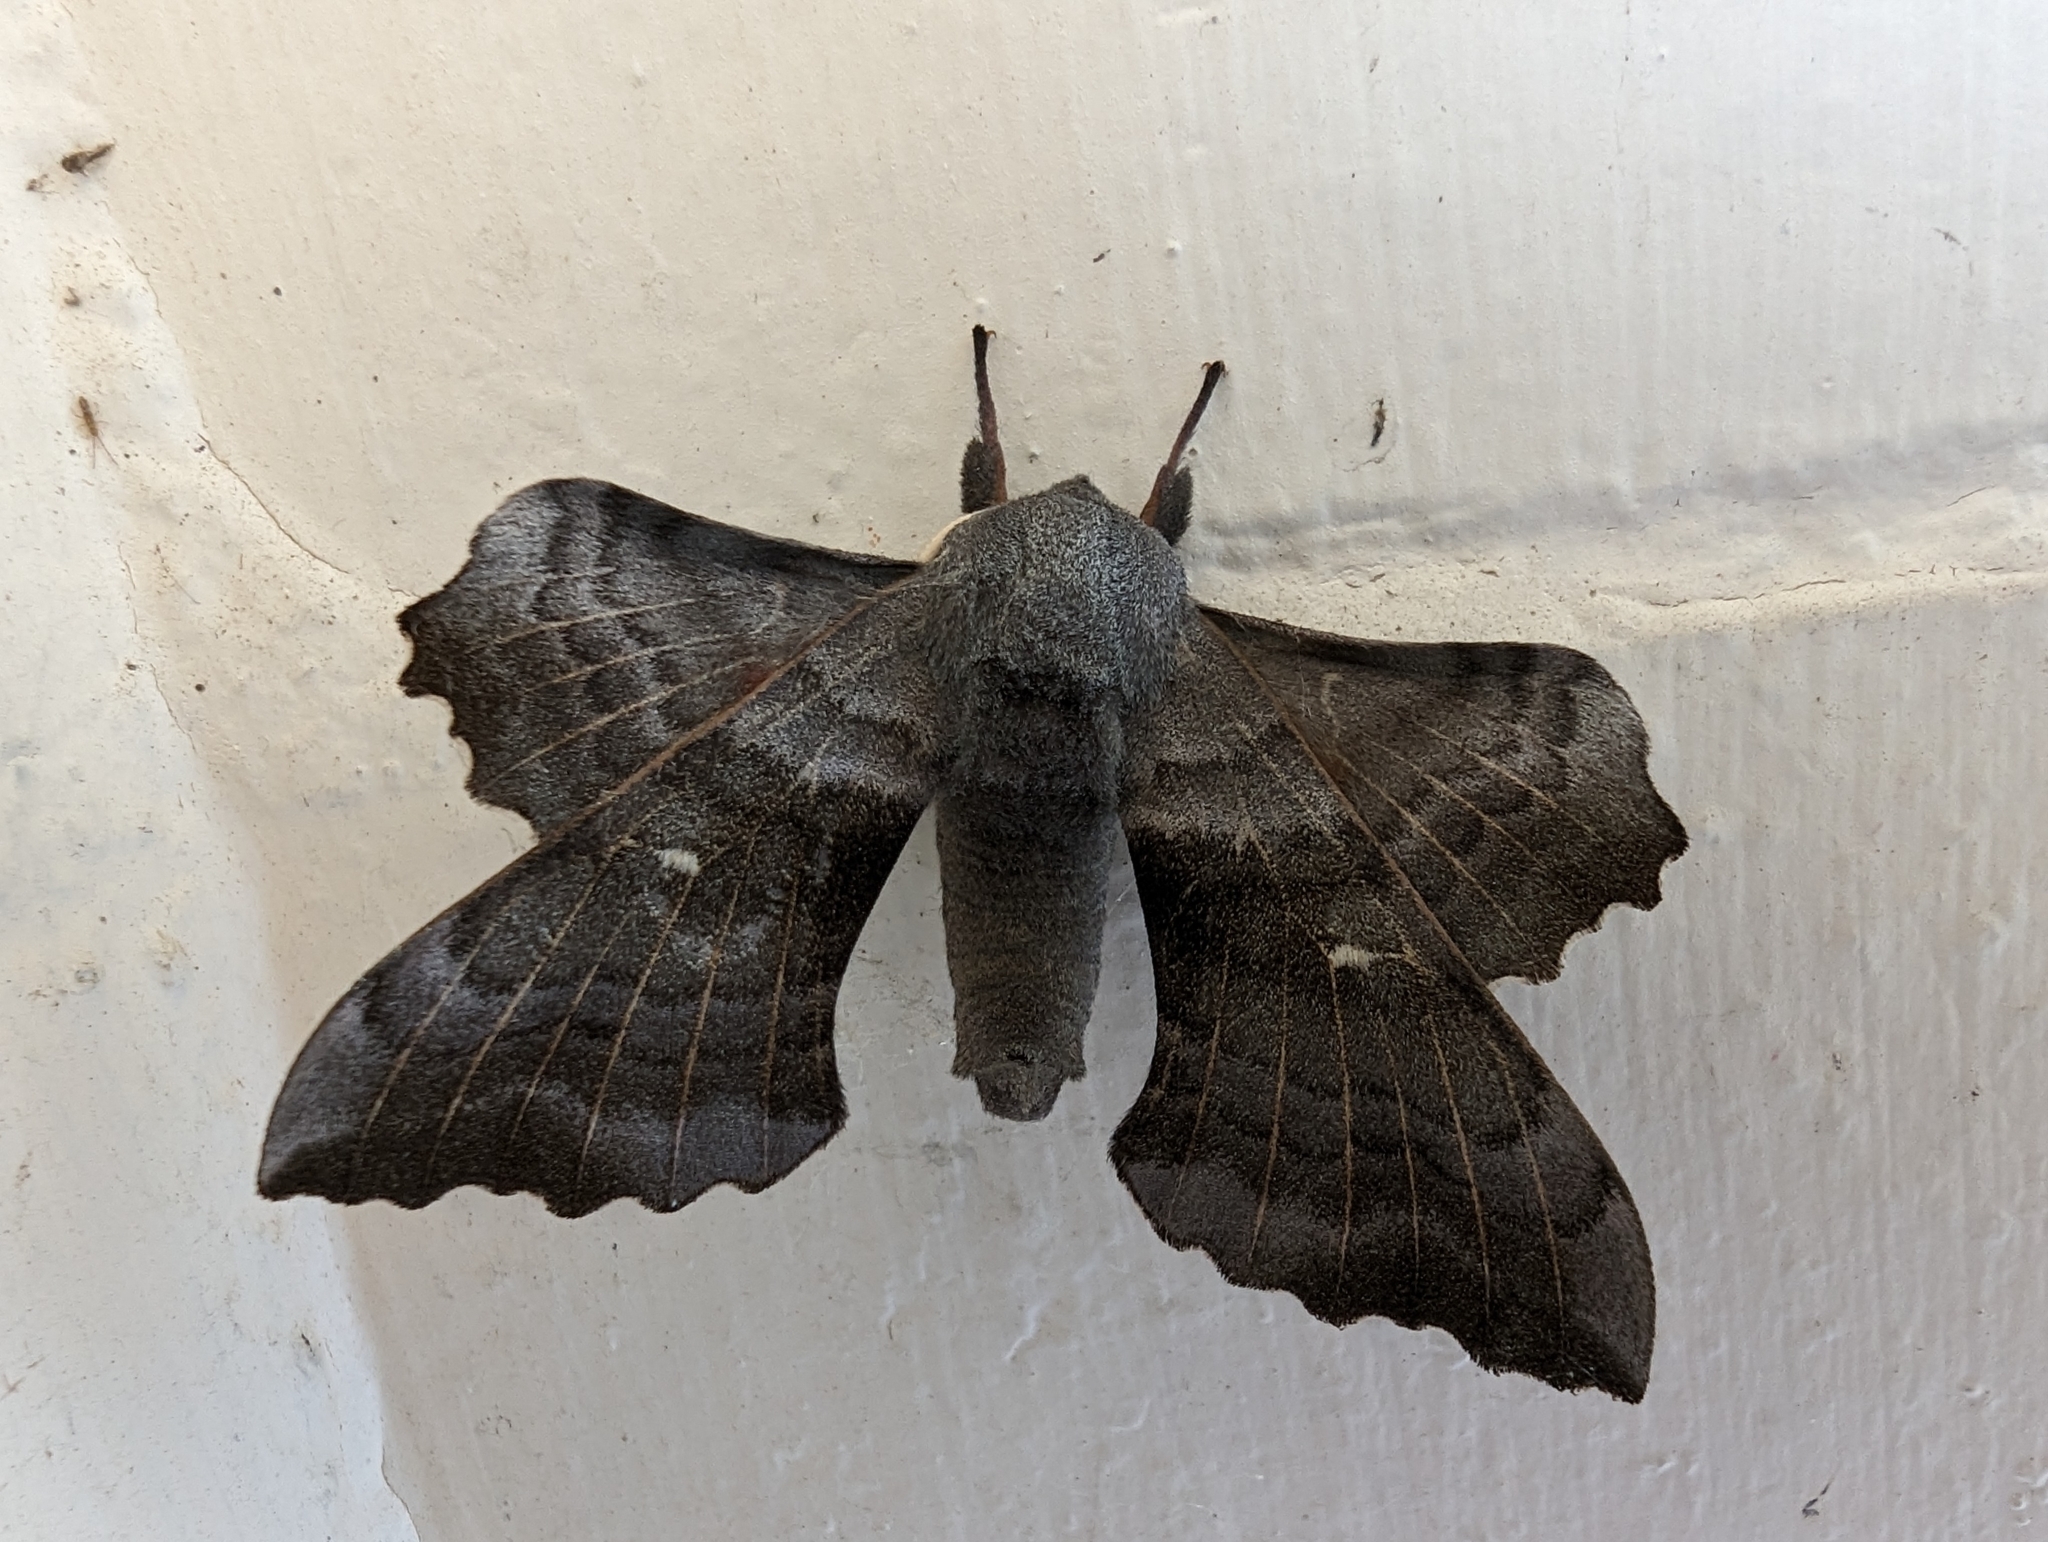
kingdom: Animalia
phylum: Arthropoda
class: Insecta
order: Lepidoptera
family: Sphingidae
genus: Laothoe
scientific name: Laothoe populi
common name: Poplar hawk-moth
